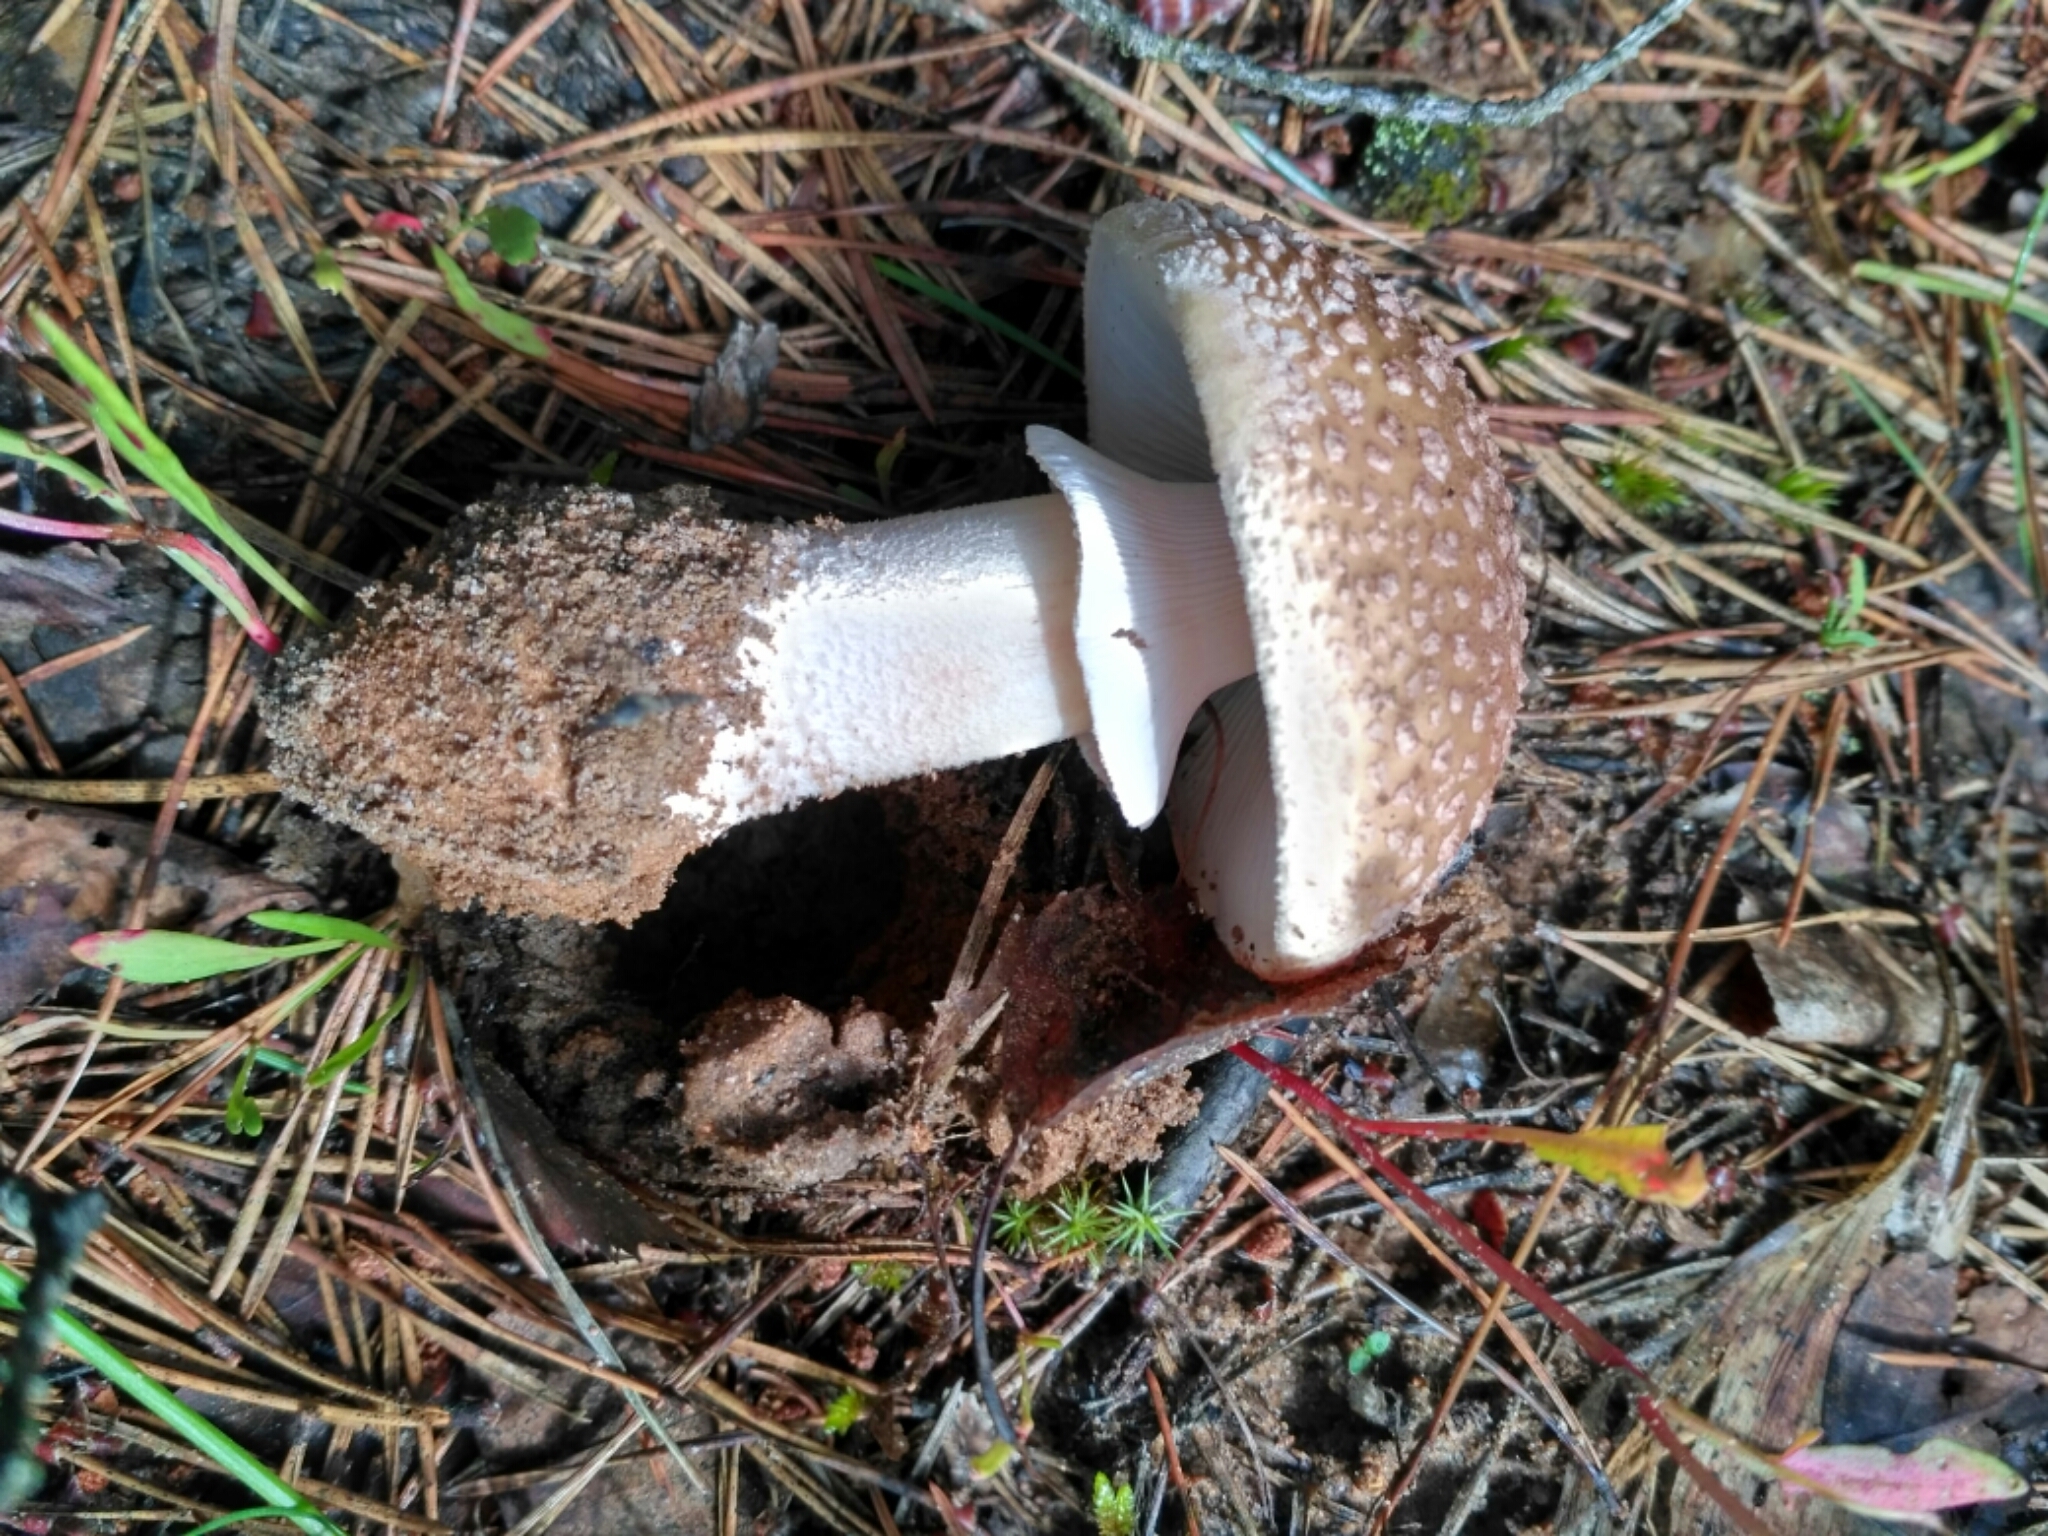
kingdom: Fungi
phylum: Basidiomycota
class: Agaricomycetes
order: Agaricales
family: Amanitaceae
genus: Amanita
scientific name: Amanita rubescens
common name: Blusher
